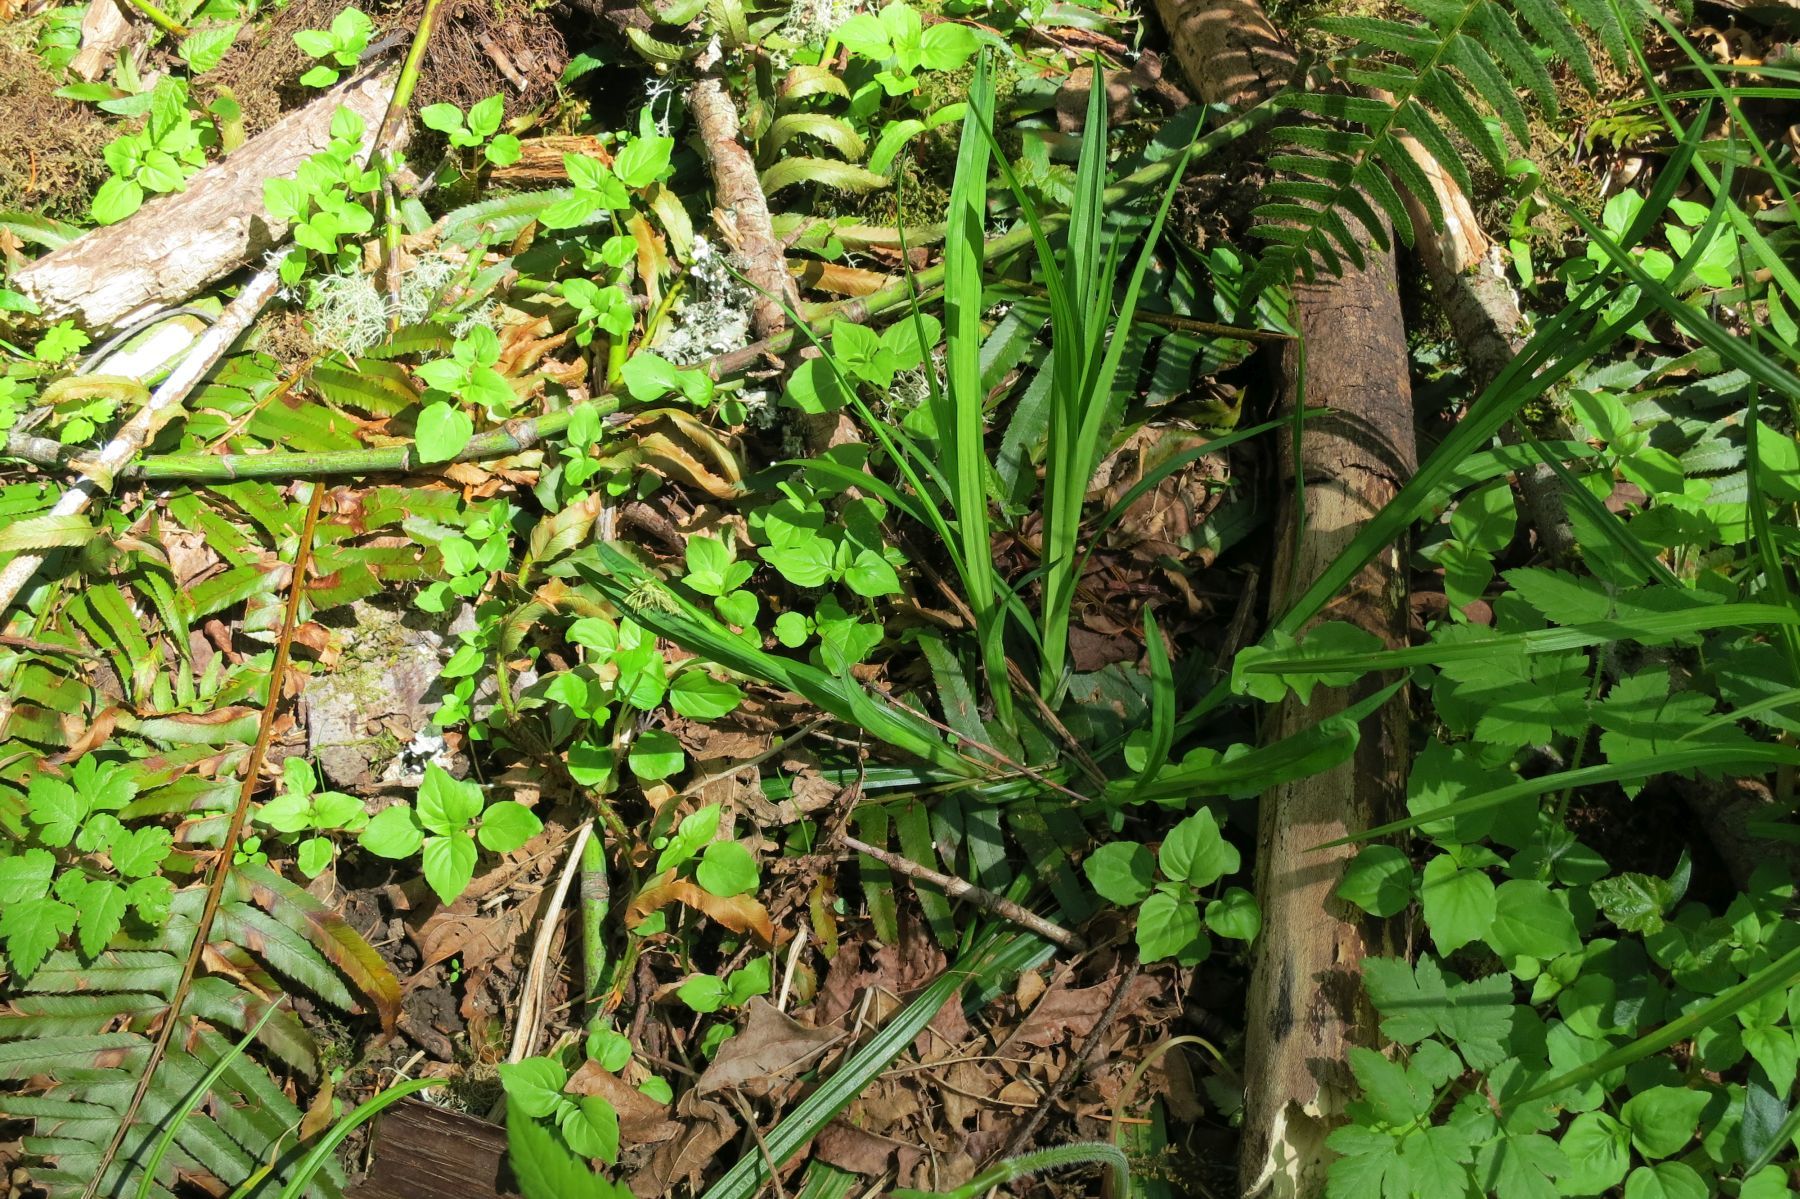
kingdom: Plantae
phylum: Tracheophyta
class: Liliopsida
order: Poales
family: Cyperaceae
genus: Carex
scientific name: Carex hendersonii
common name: Henderson's sedge
